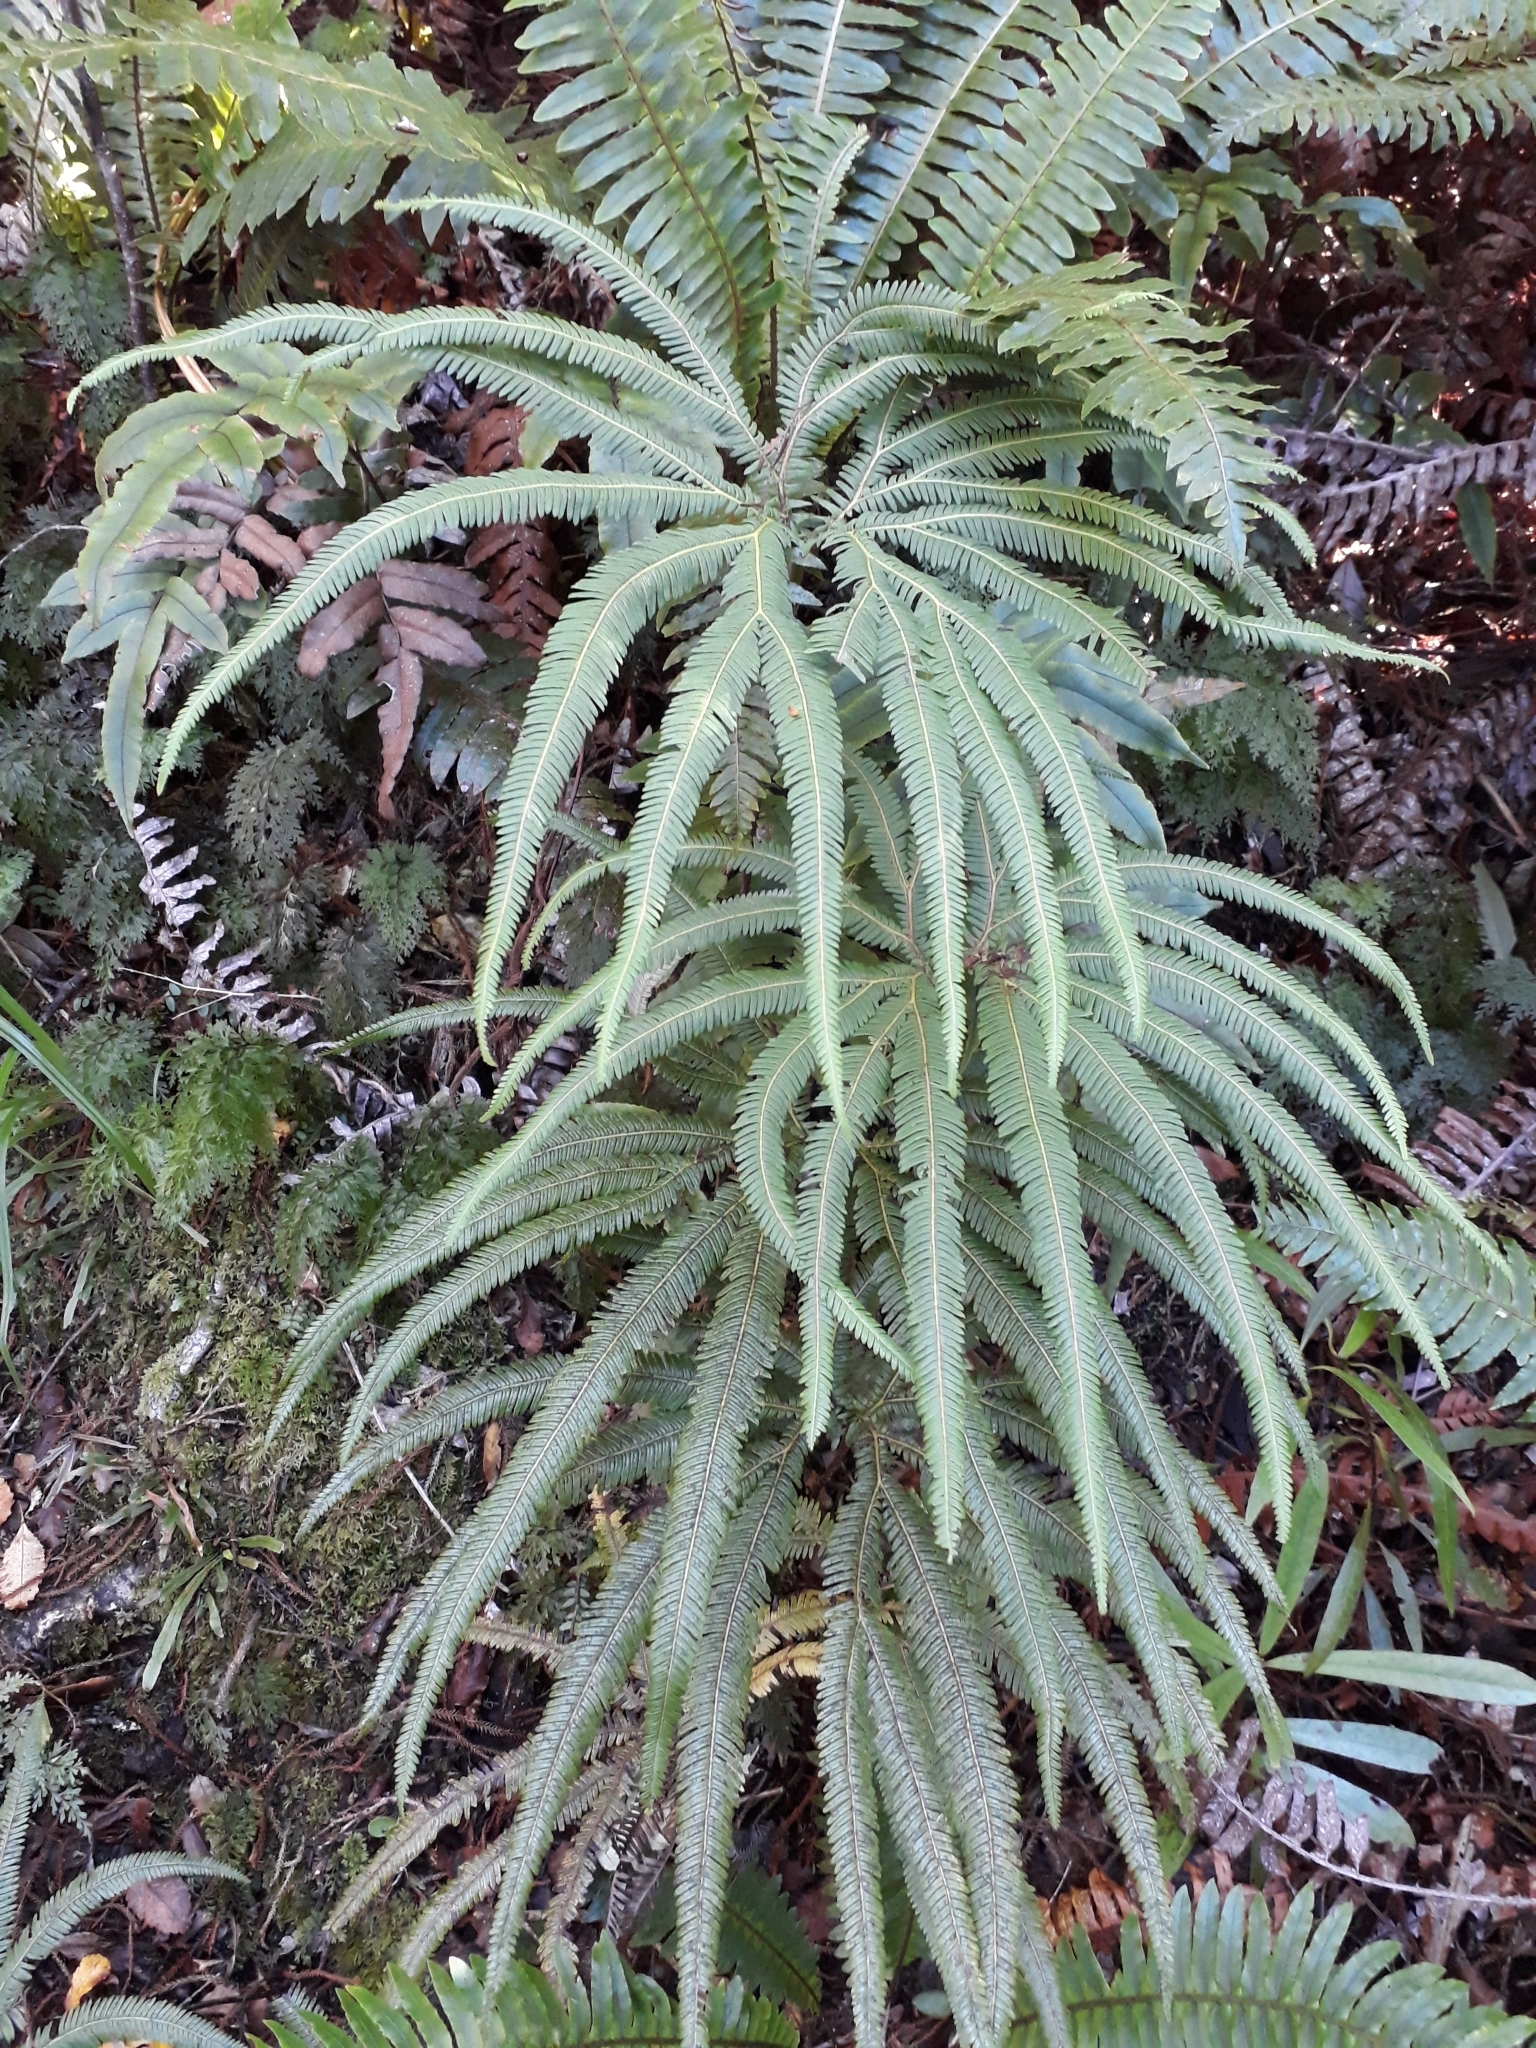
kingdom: Plantae
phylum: Tracheophyta
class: Polypodiopsida
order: Gleicheniales
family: Gleicheniaceae
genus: Sticherus
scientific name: Sticherus cunninghamii
